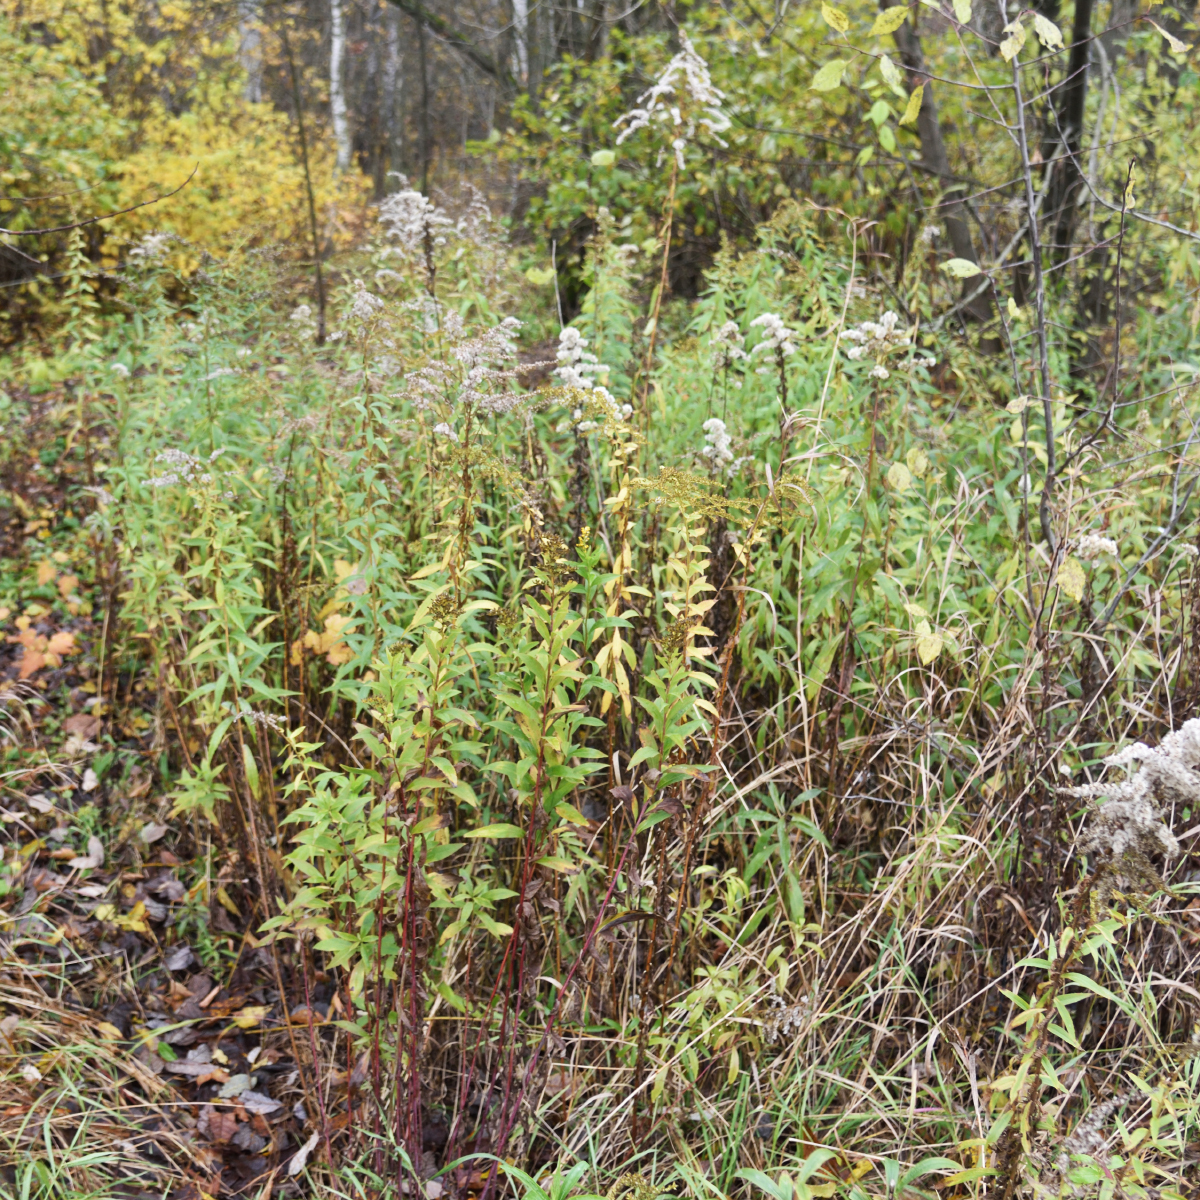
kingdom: Plantae
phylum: Tracheophyta
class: Magnoliopsida
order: Asterales
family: Asteraceae
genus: Solidago
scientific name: Solidago gigantea
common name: Giant goldenrod
